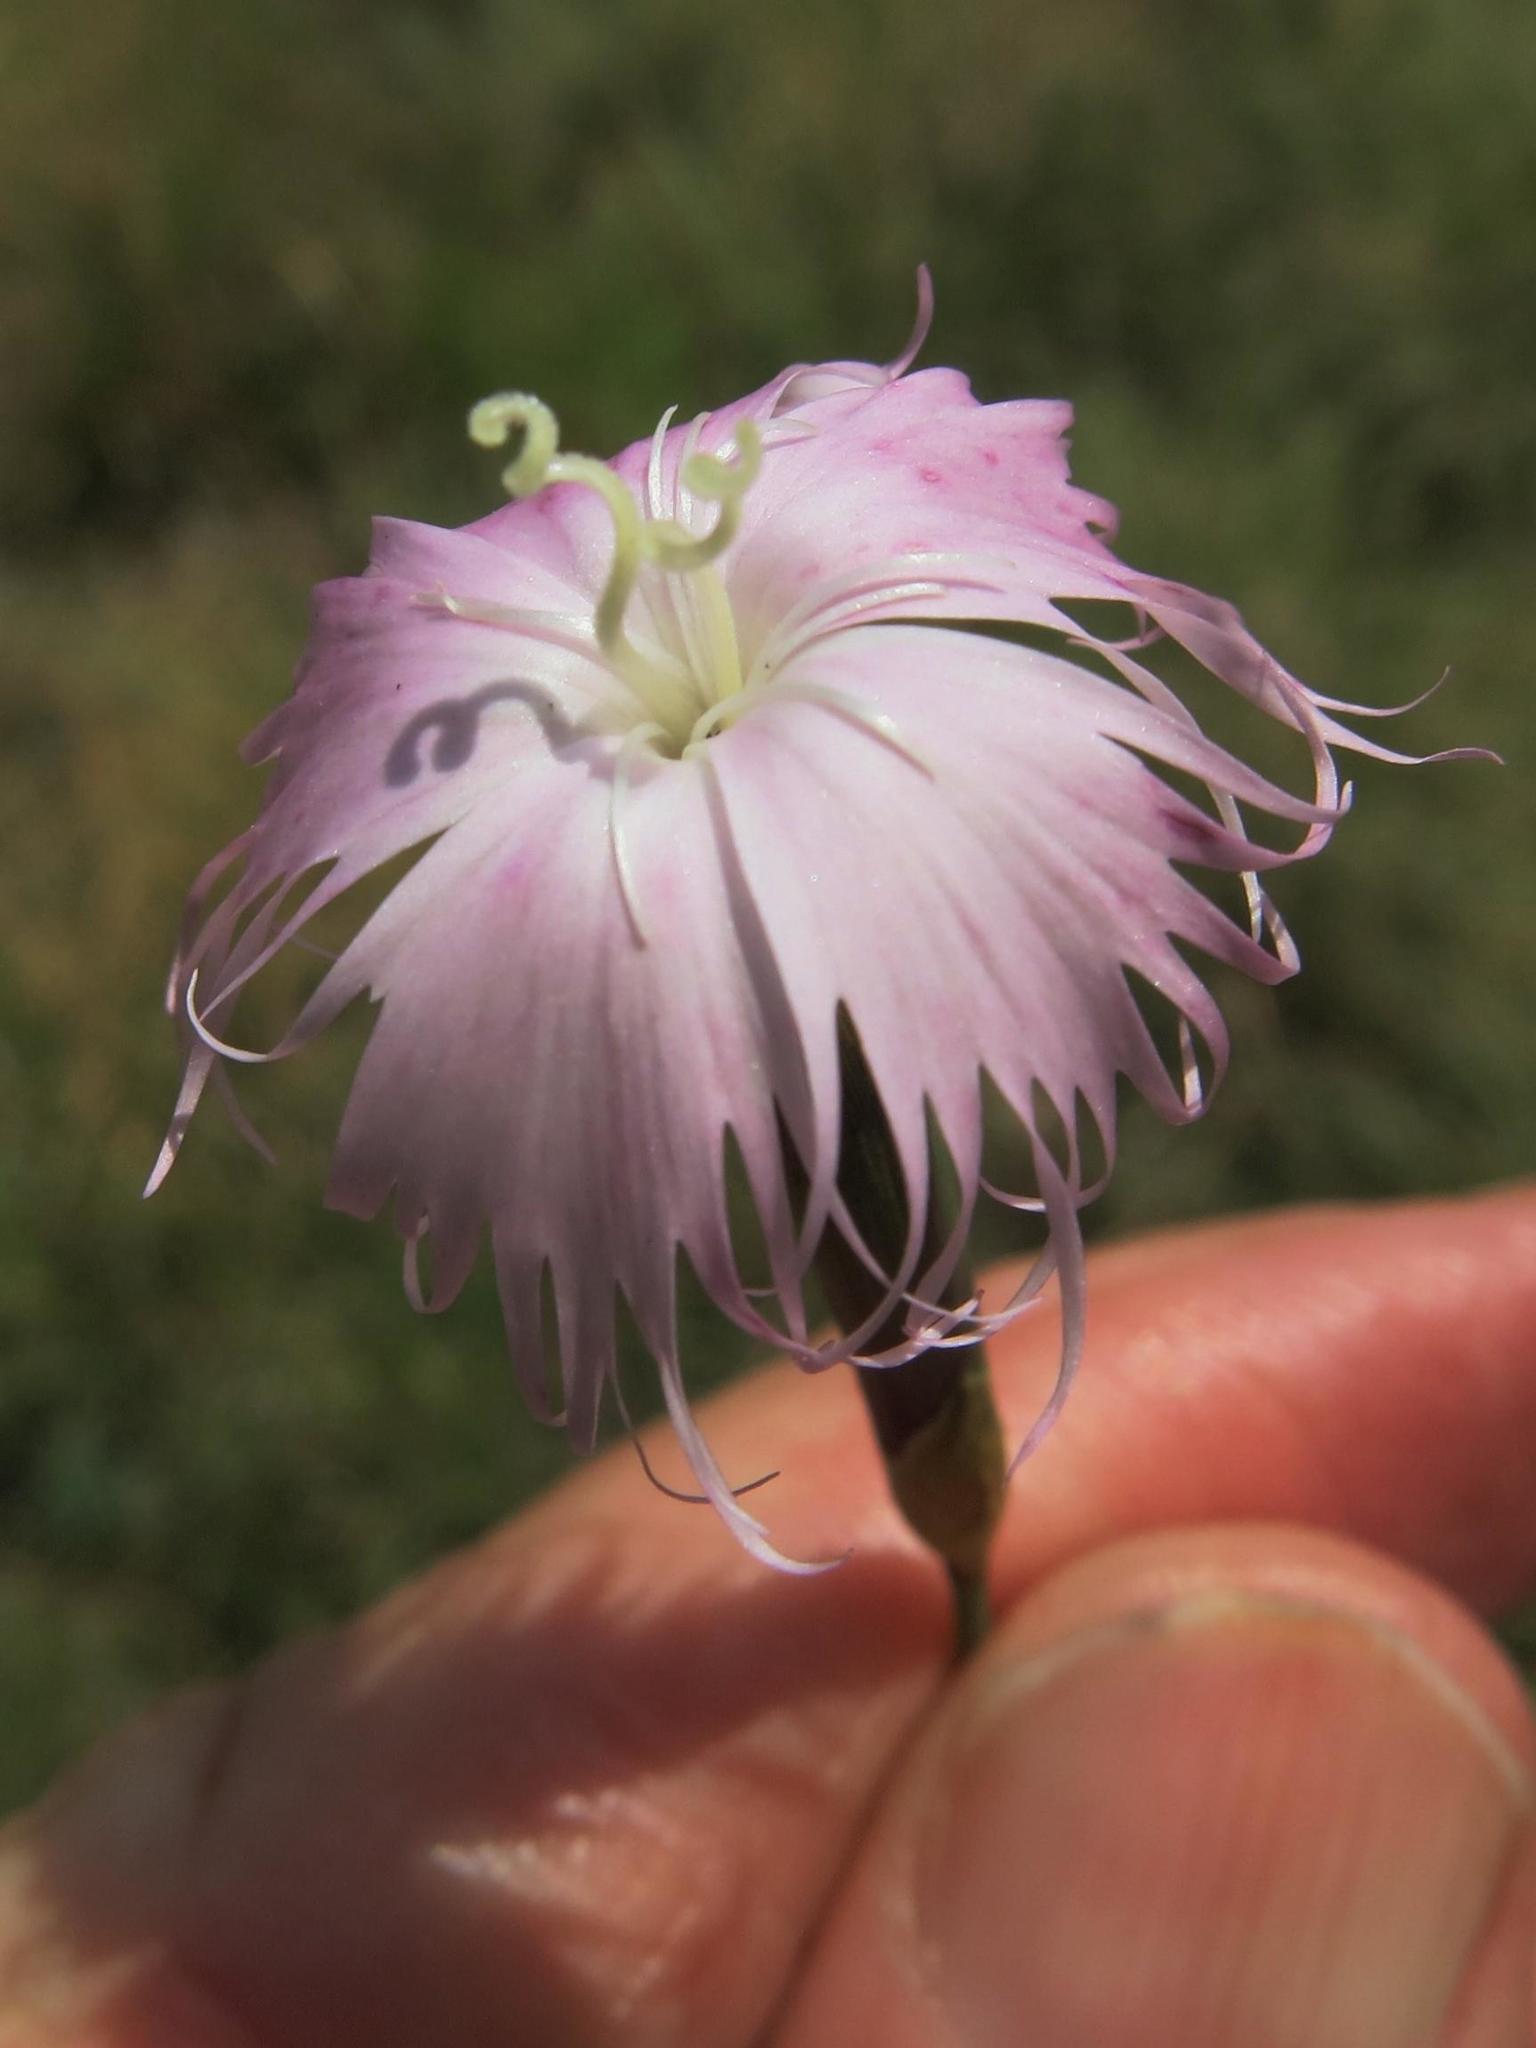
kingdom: Plantae
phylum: Tracheophyta
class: Magnoliopsida
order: Caryophyllales
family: Caryophyllaceae
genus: Dianthus
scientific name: Dianthus moviensis
